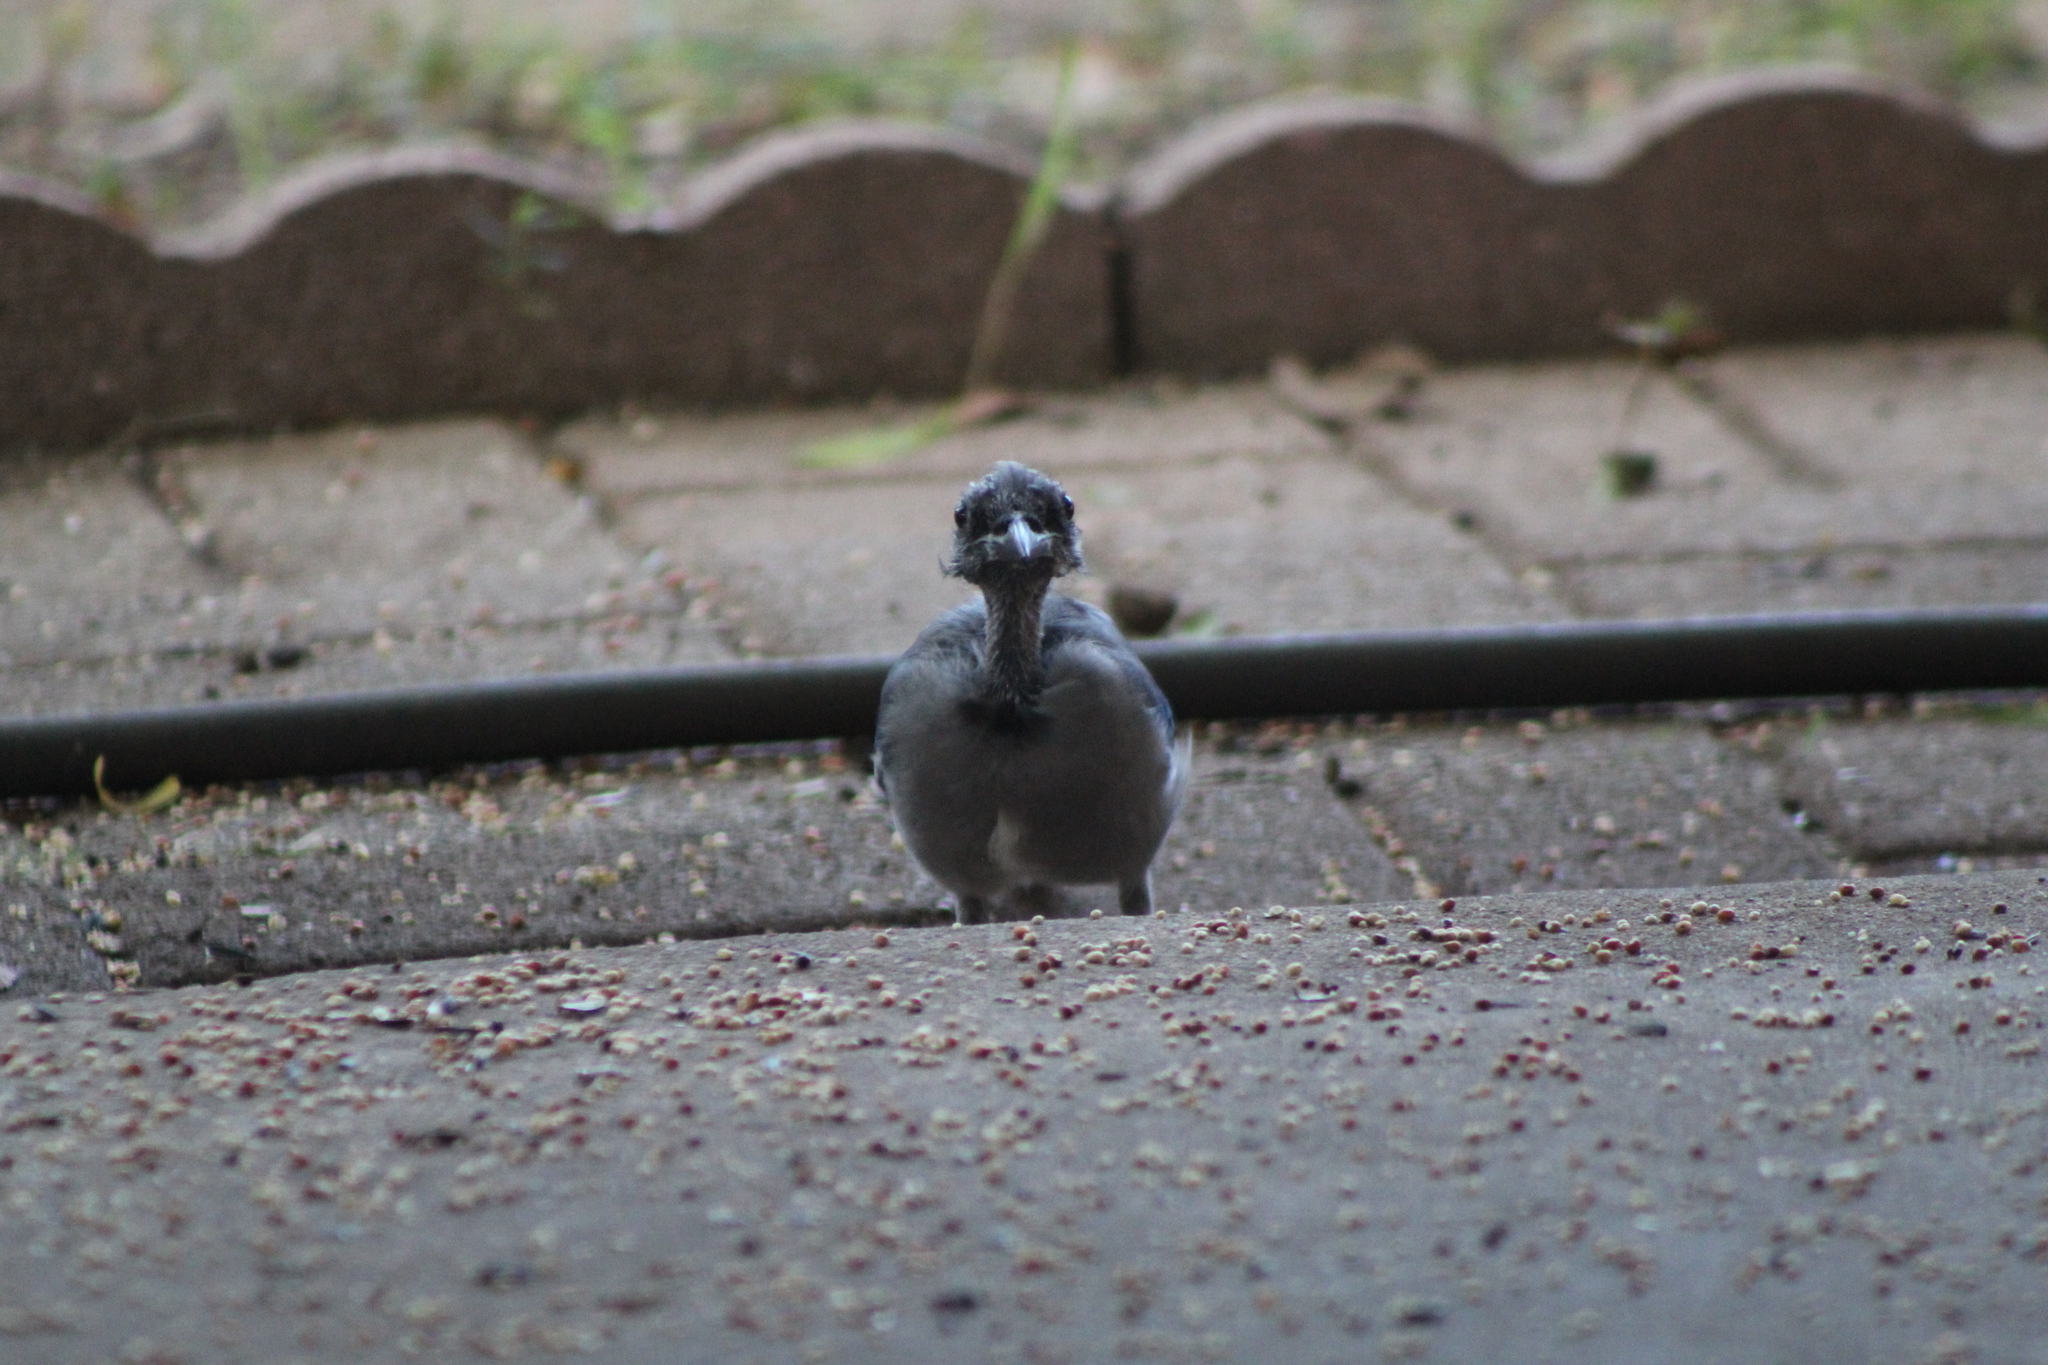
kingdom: Animalia
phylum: Chordata
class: Aves
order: Passeriformes
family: Corvidae
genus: Cyanocitta
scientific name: Cyanocitta cristata
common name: Blue jay
